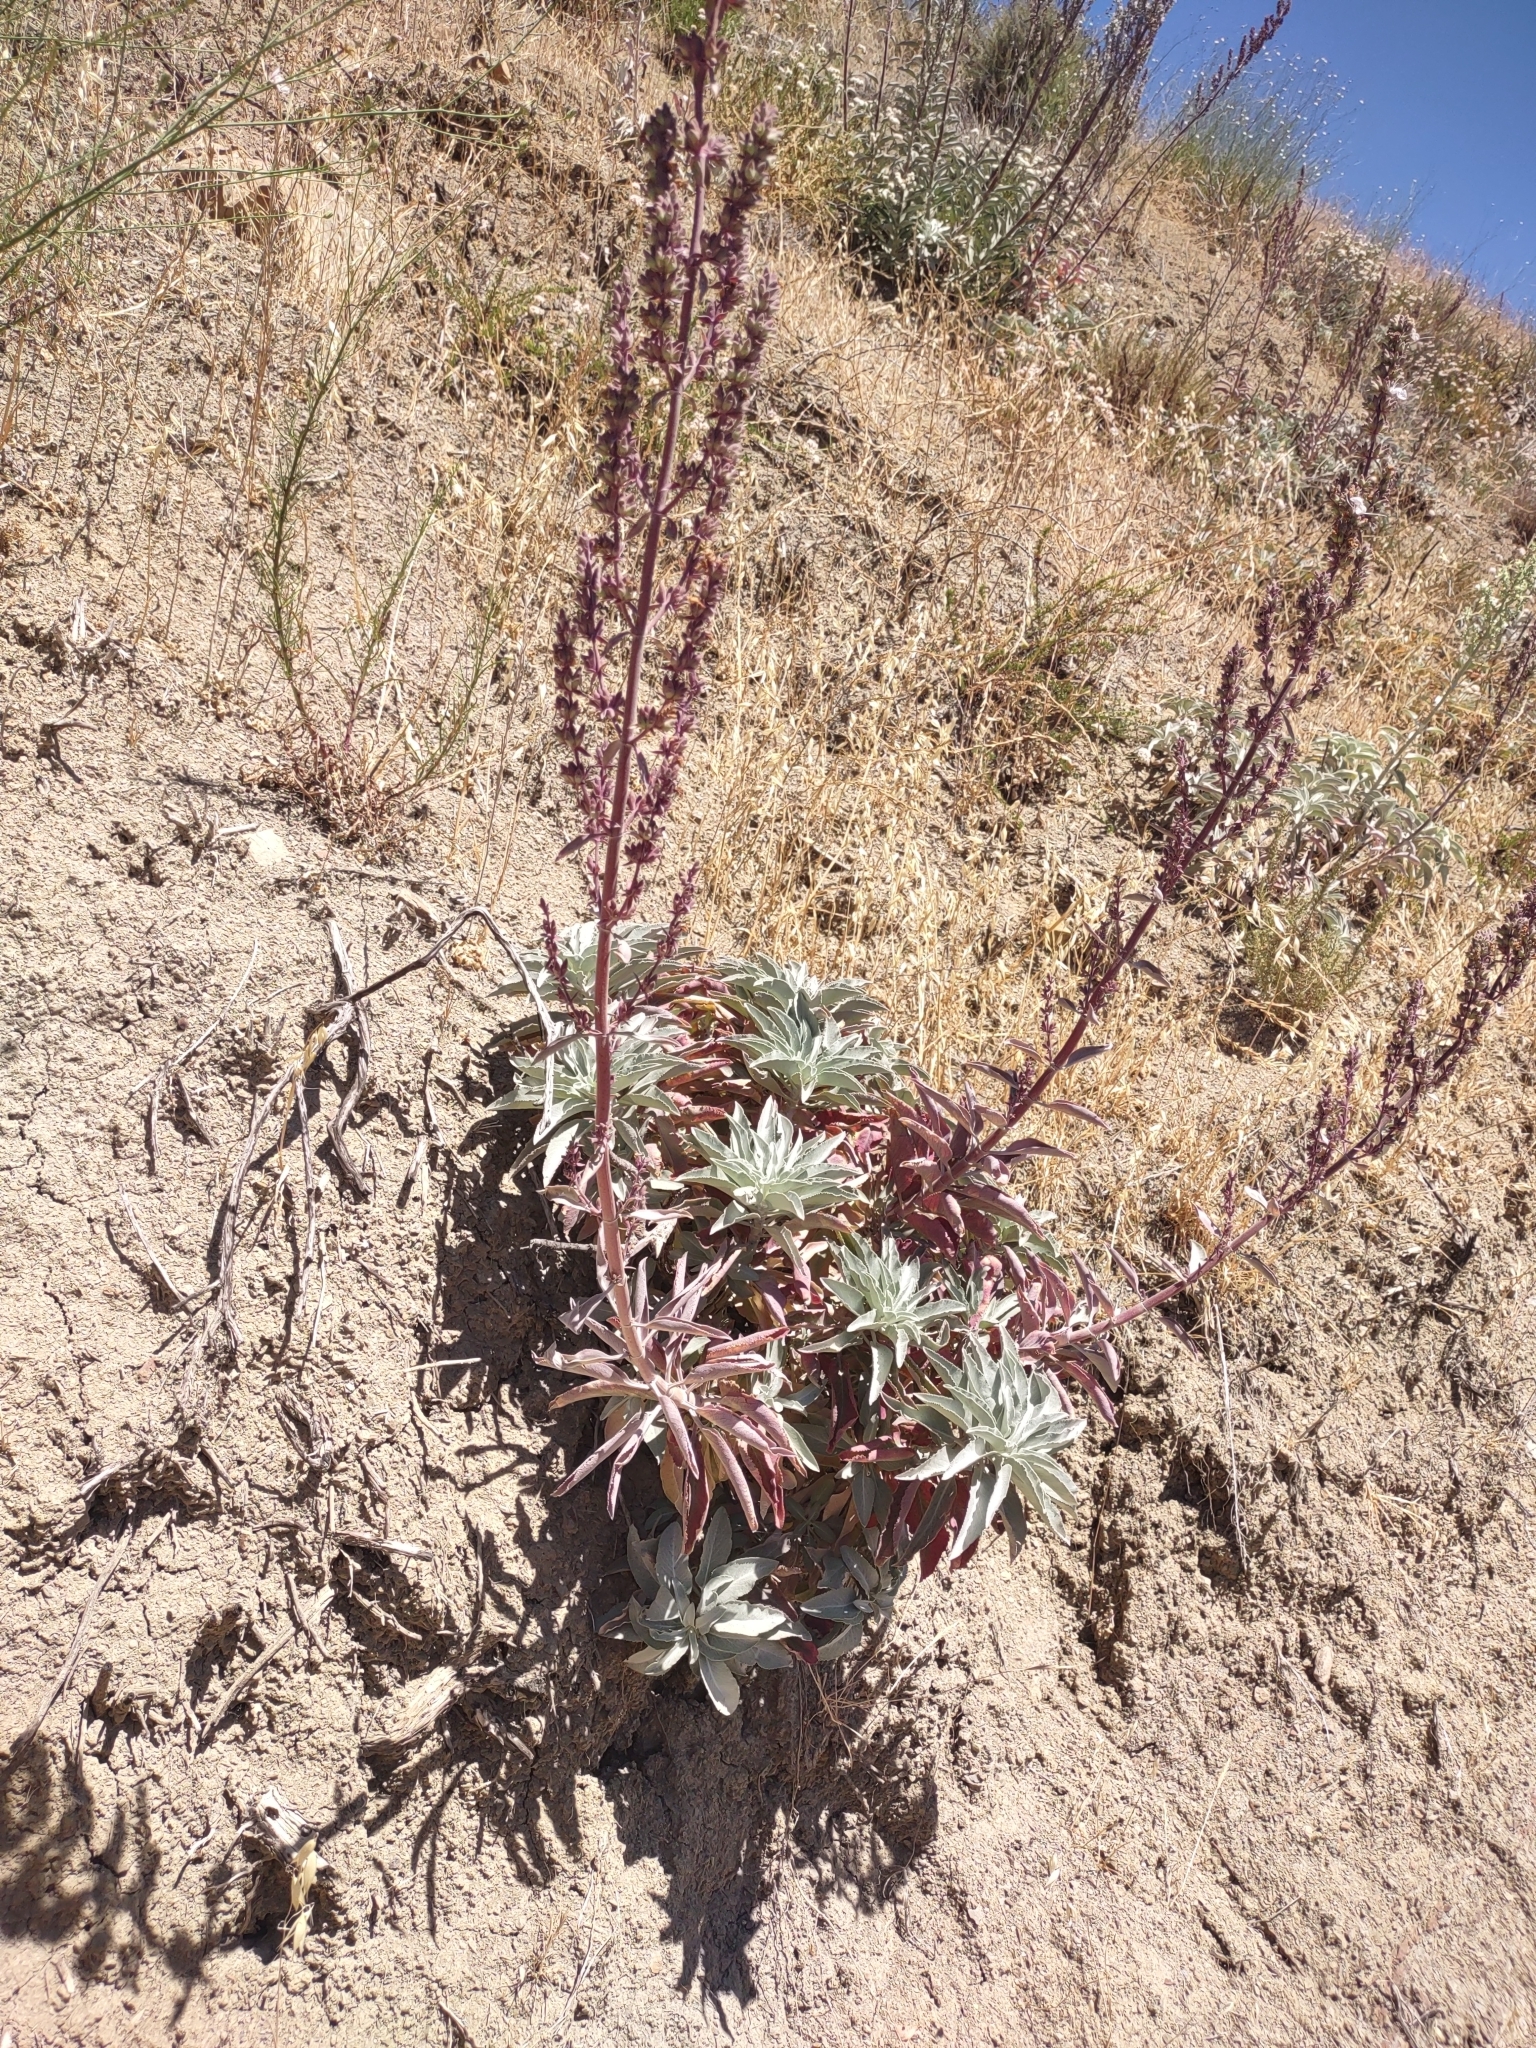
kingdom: Plantae
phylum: Tracheophyta
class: Magnoliopsida
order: Lamiales
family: Lamiaceae
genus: Salvia
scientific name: Salvia apiana
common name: White sage
